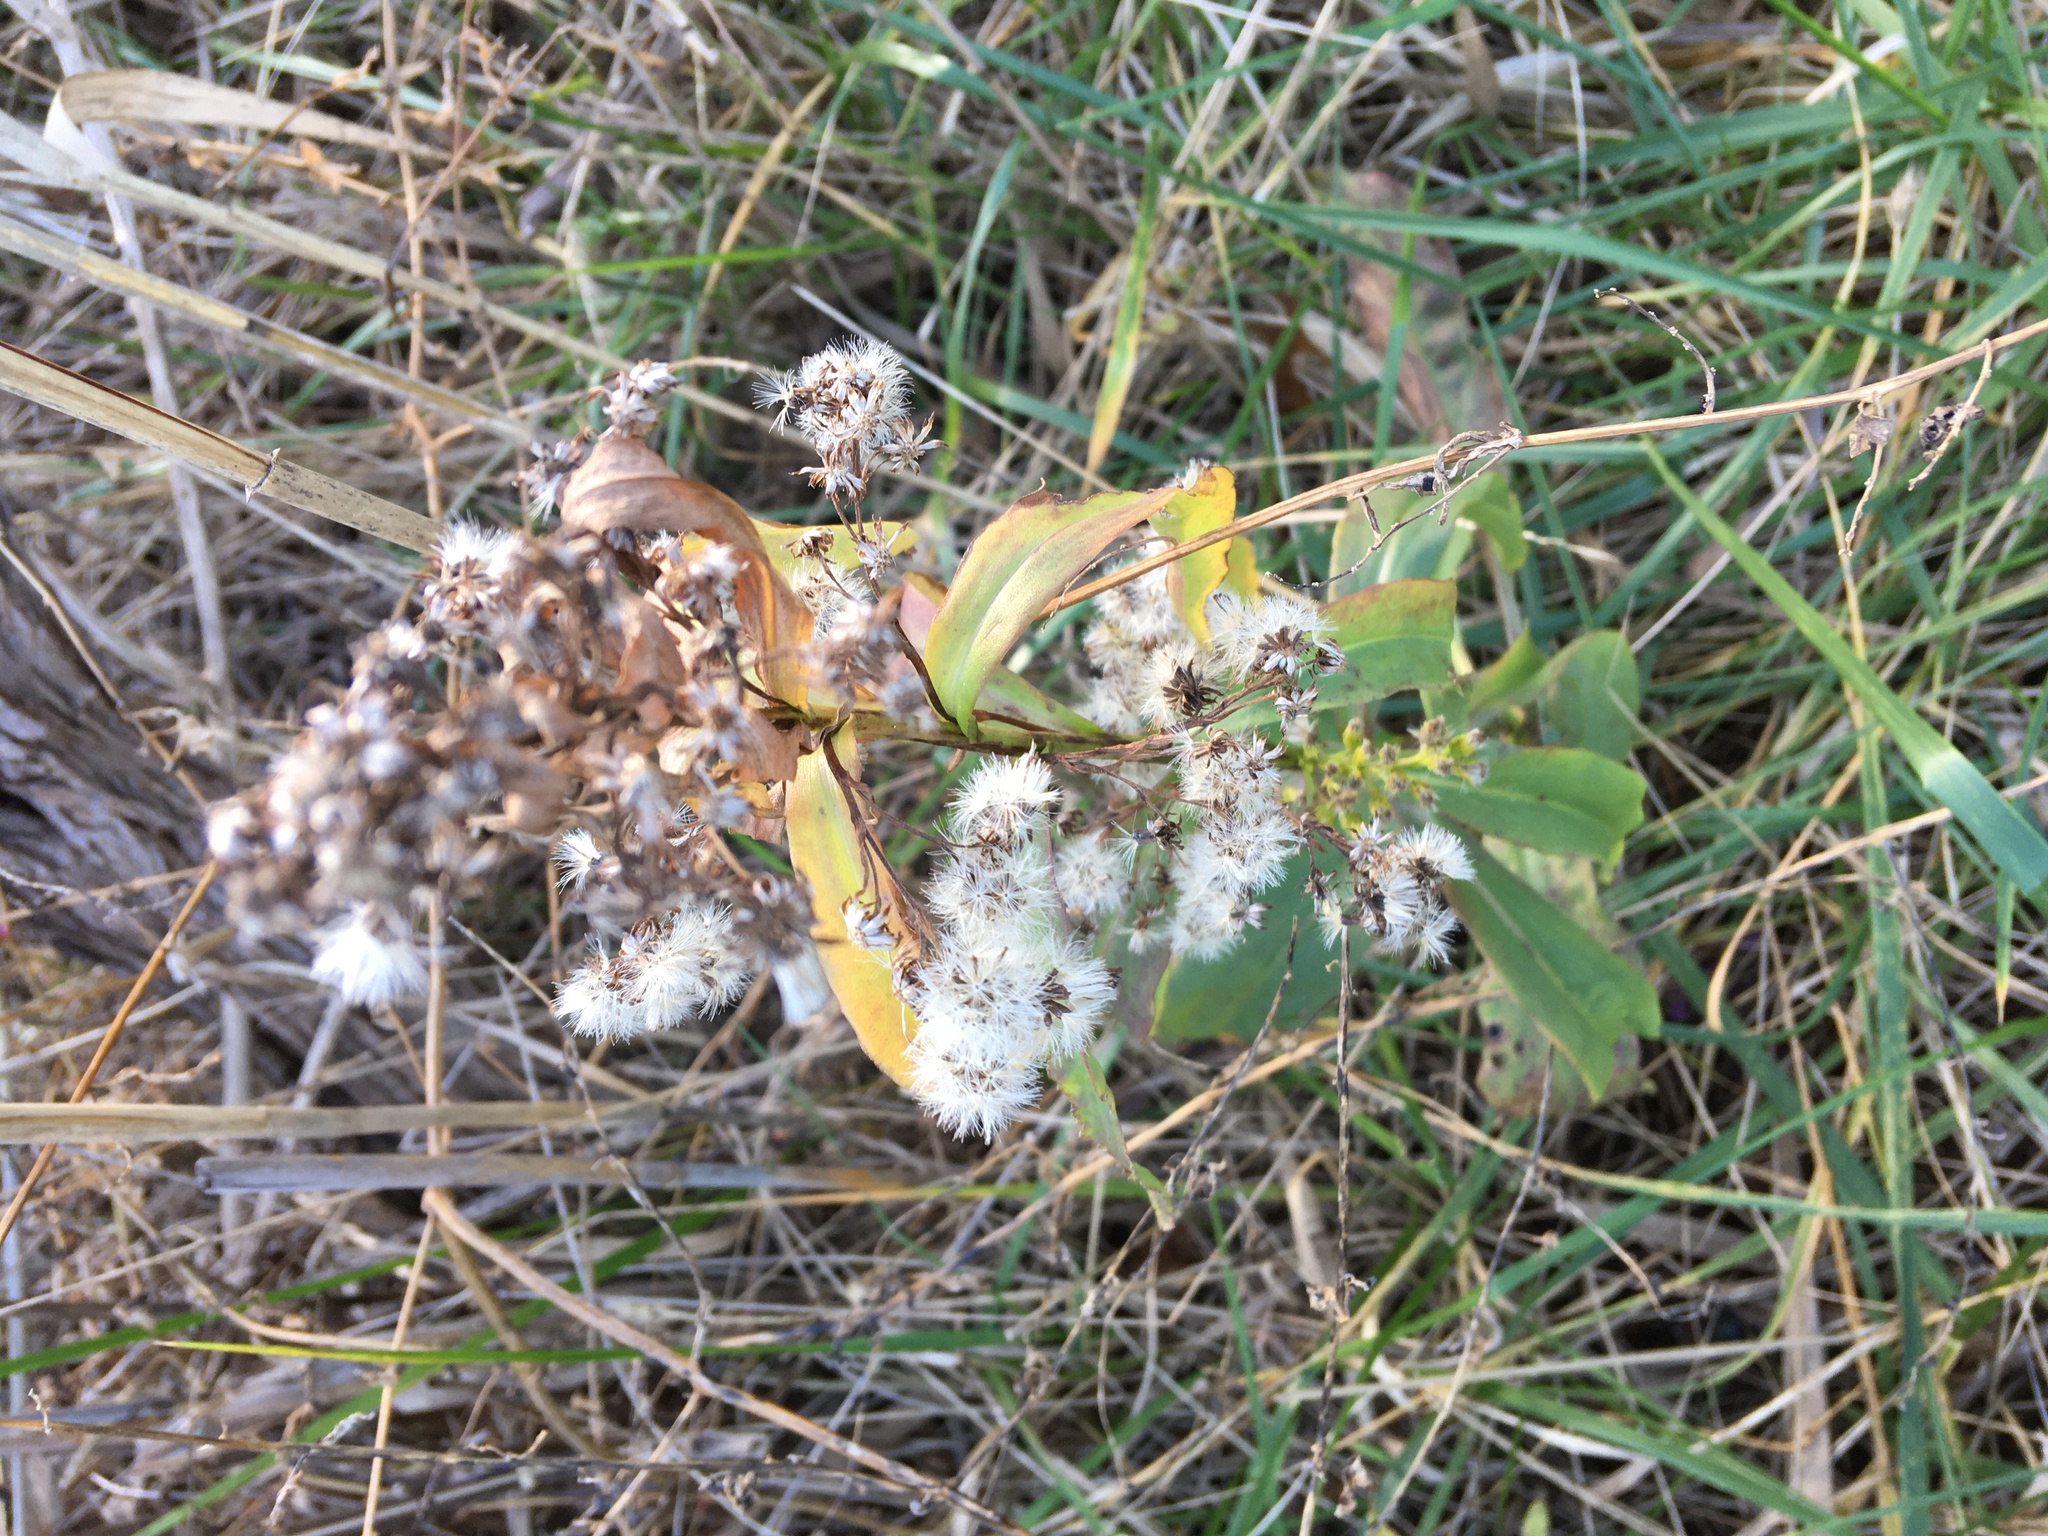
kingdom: Plantae
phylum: Tracheophyta
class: Magnoliopsida
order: Asterales
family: Asteraceae
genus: Solidago
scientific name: Solidago sempervirens
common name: Salt-marsh goldenrod
